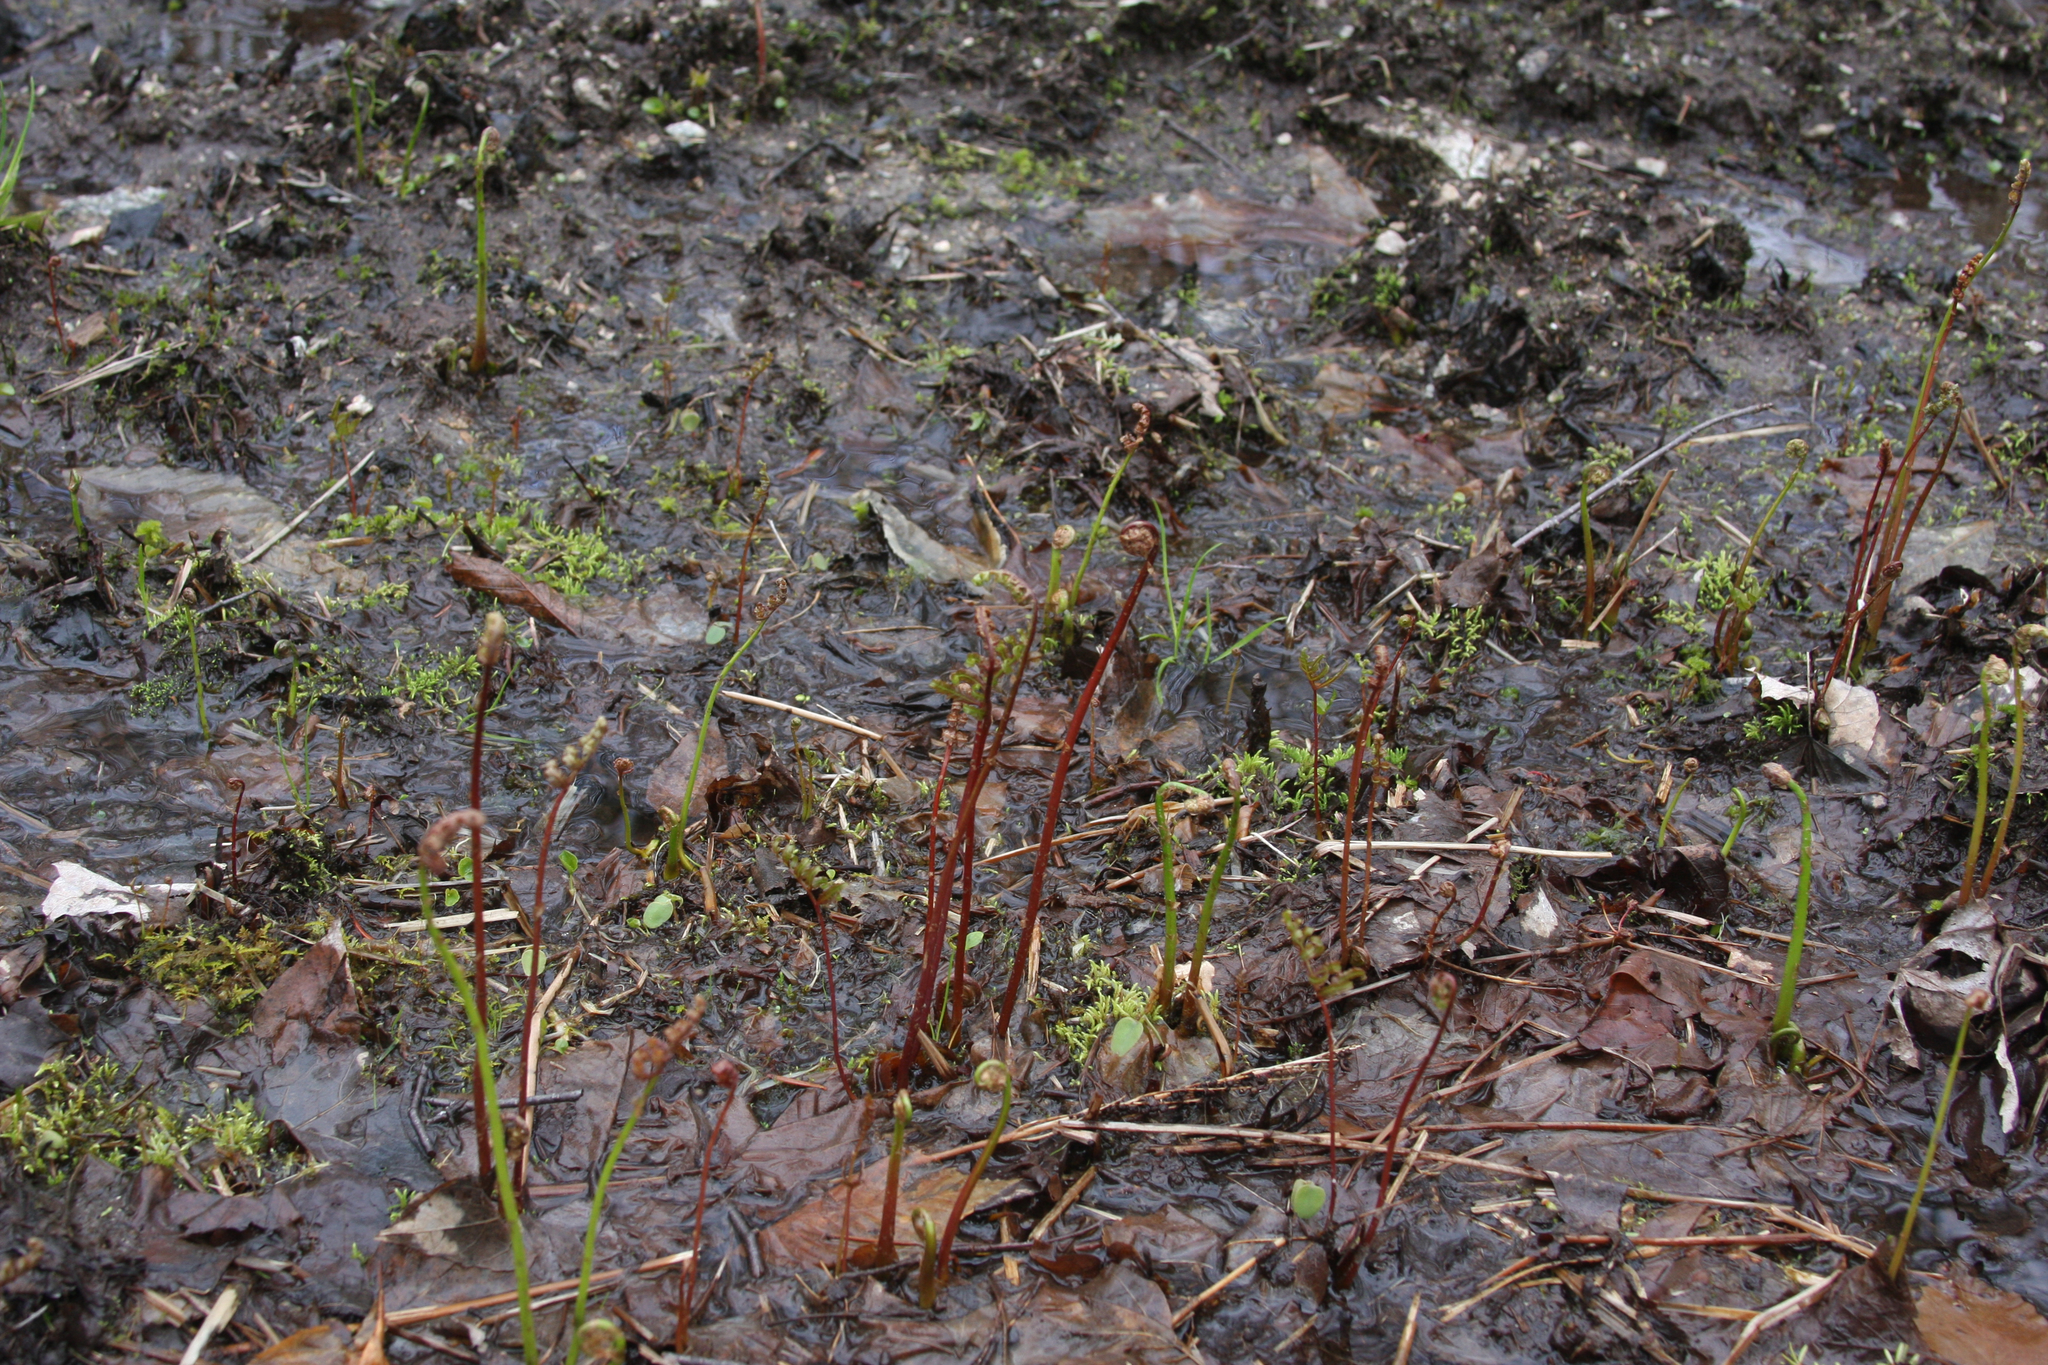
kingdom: Plantae
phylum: Tracheophyta
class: Polypodiopsida
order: Polypodiales
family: Onocleaceae
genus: Onoclea
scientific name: Onoclea sensibilis
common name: Sensitive fern
